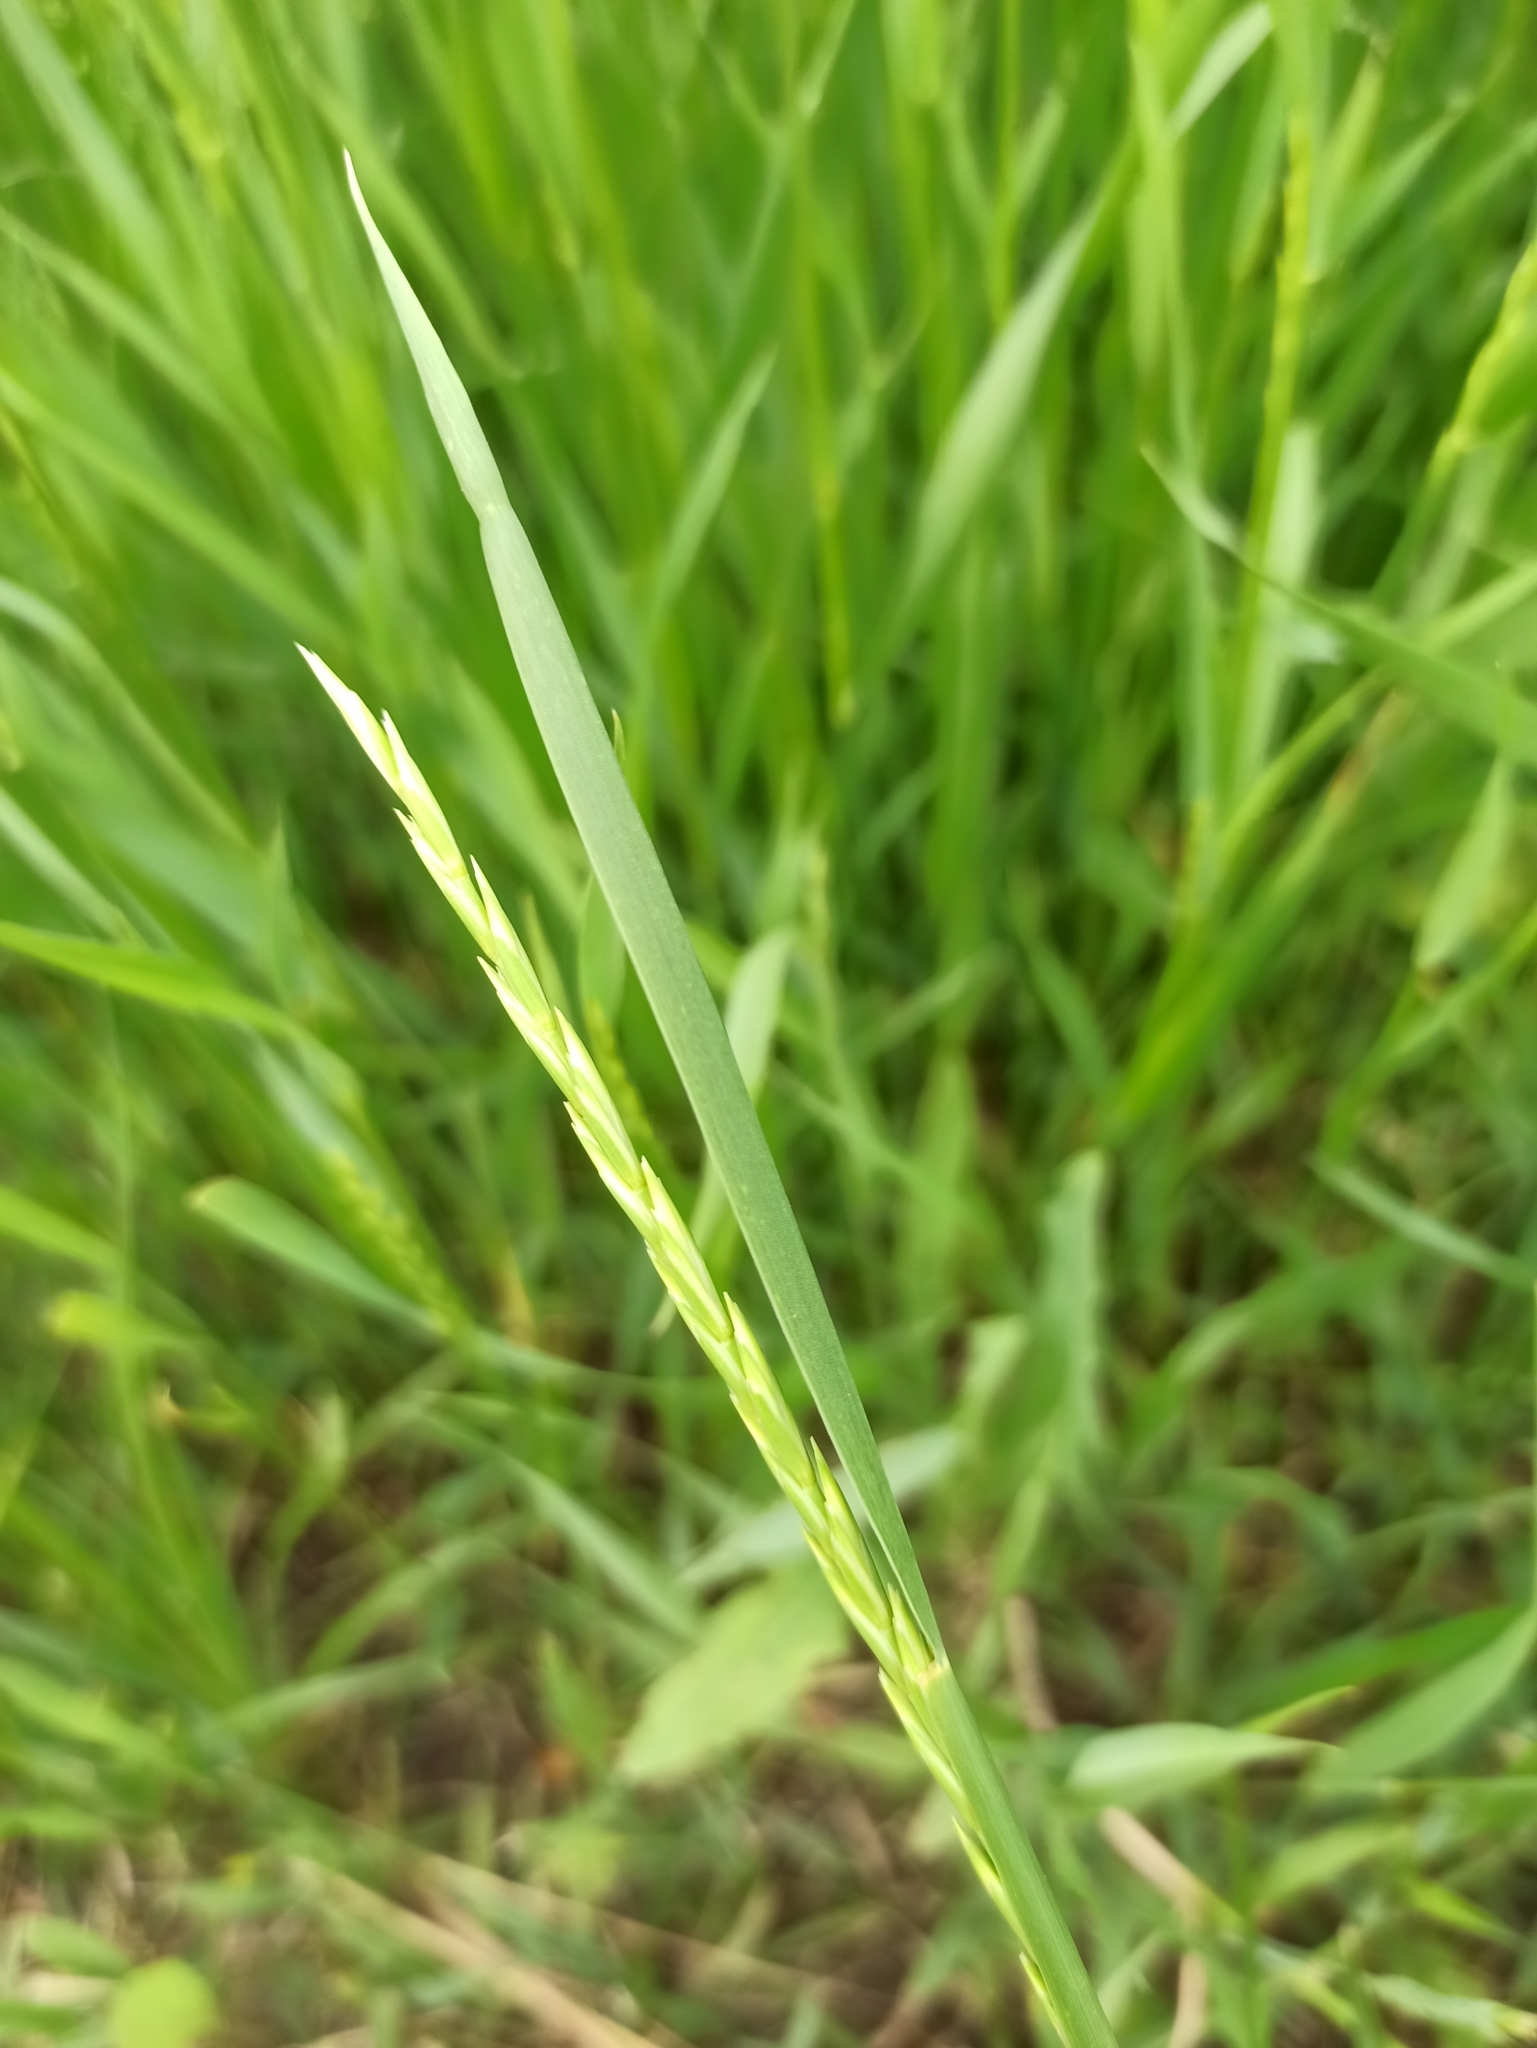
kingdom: Plantae
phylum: Tracheophyta
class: Liliopsida
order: Poales
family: Poaceae
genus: Elymus
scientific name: Elymus repens
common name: Quackgrass
